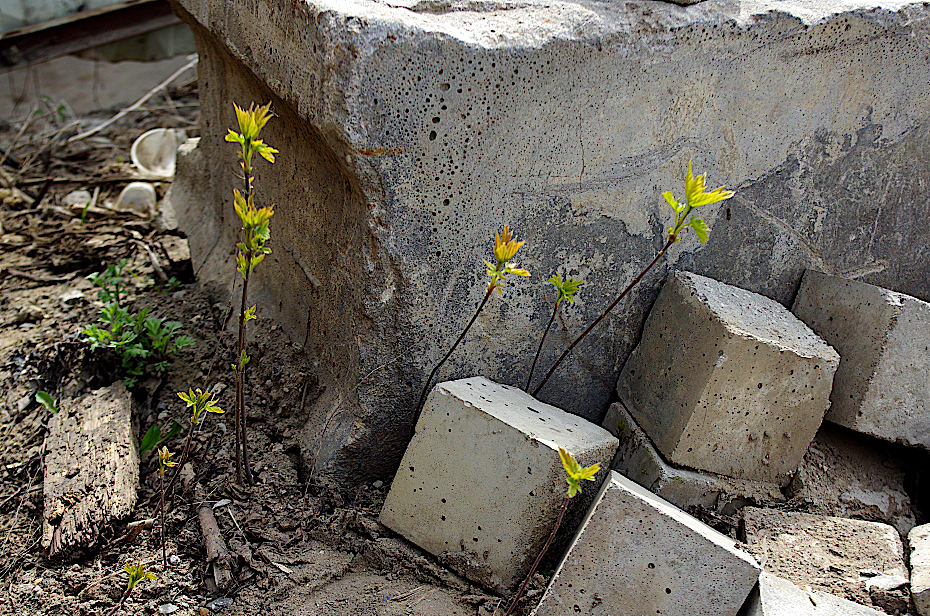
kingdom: Plantae
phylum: Tracheophyta
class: Magnoliopsida
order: Sapindales
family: Sapindaceae
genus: Acer
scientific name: Acer negundo
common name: Ashleaf maple
